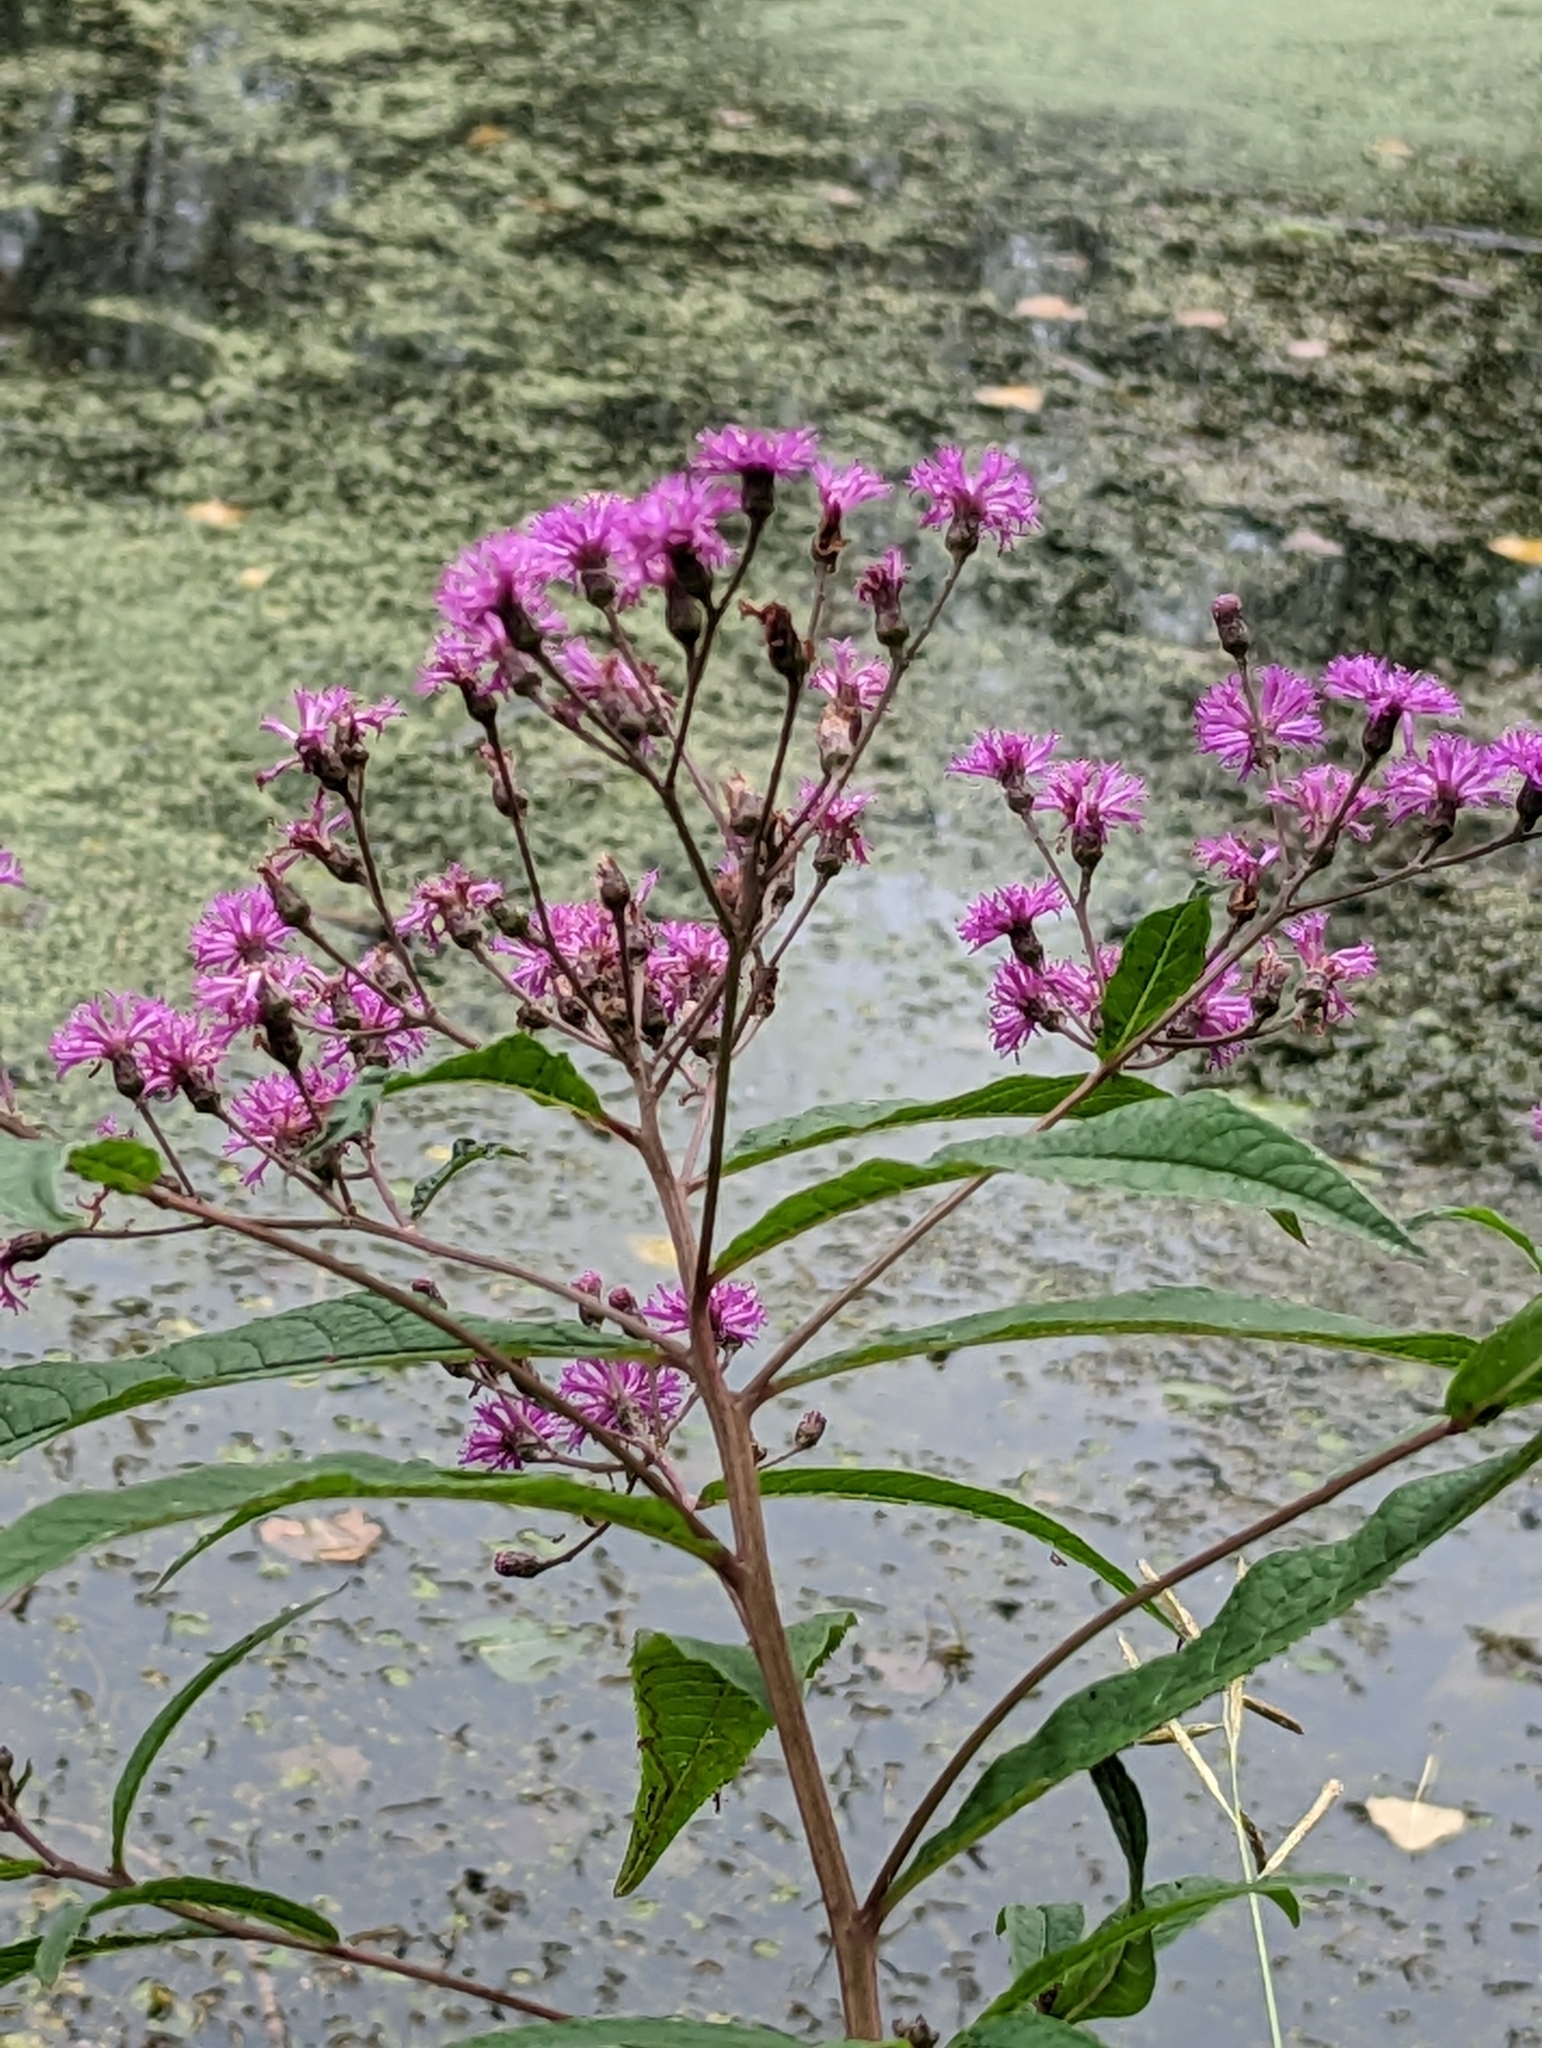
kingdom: Plantae
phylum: Tracheophyta
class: Magnoliopsida
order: Asterales
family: Asteraceae
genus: Vernonia
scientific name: Vernonia gigantea
